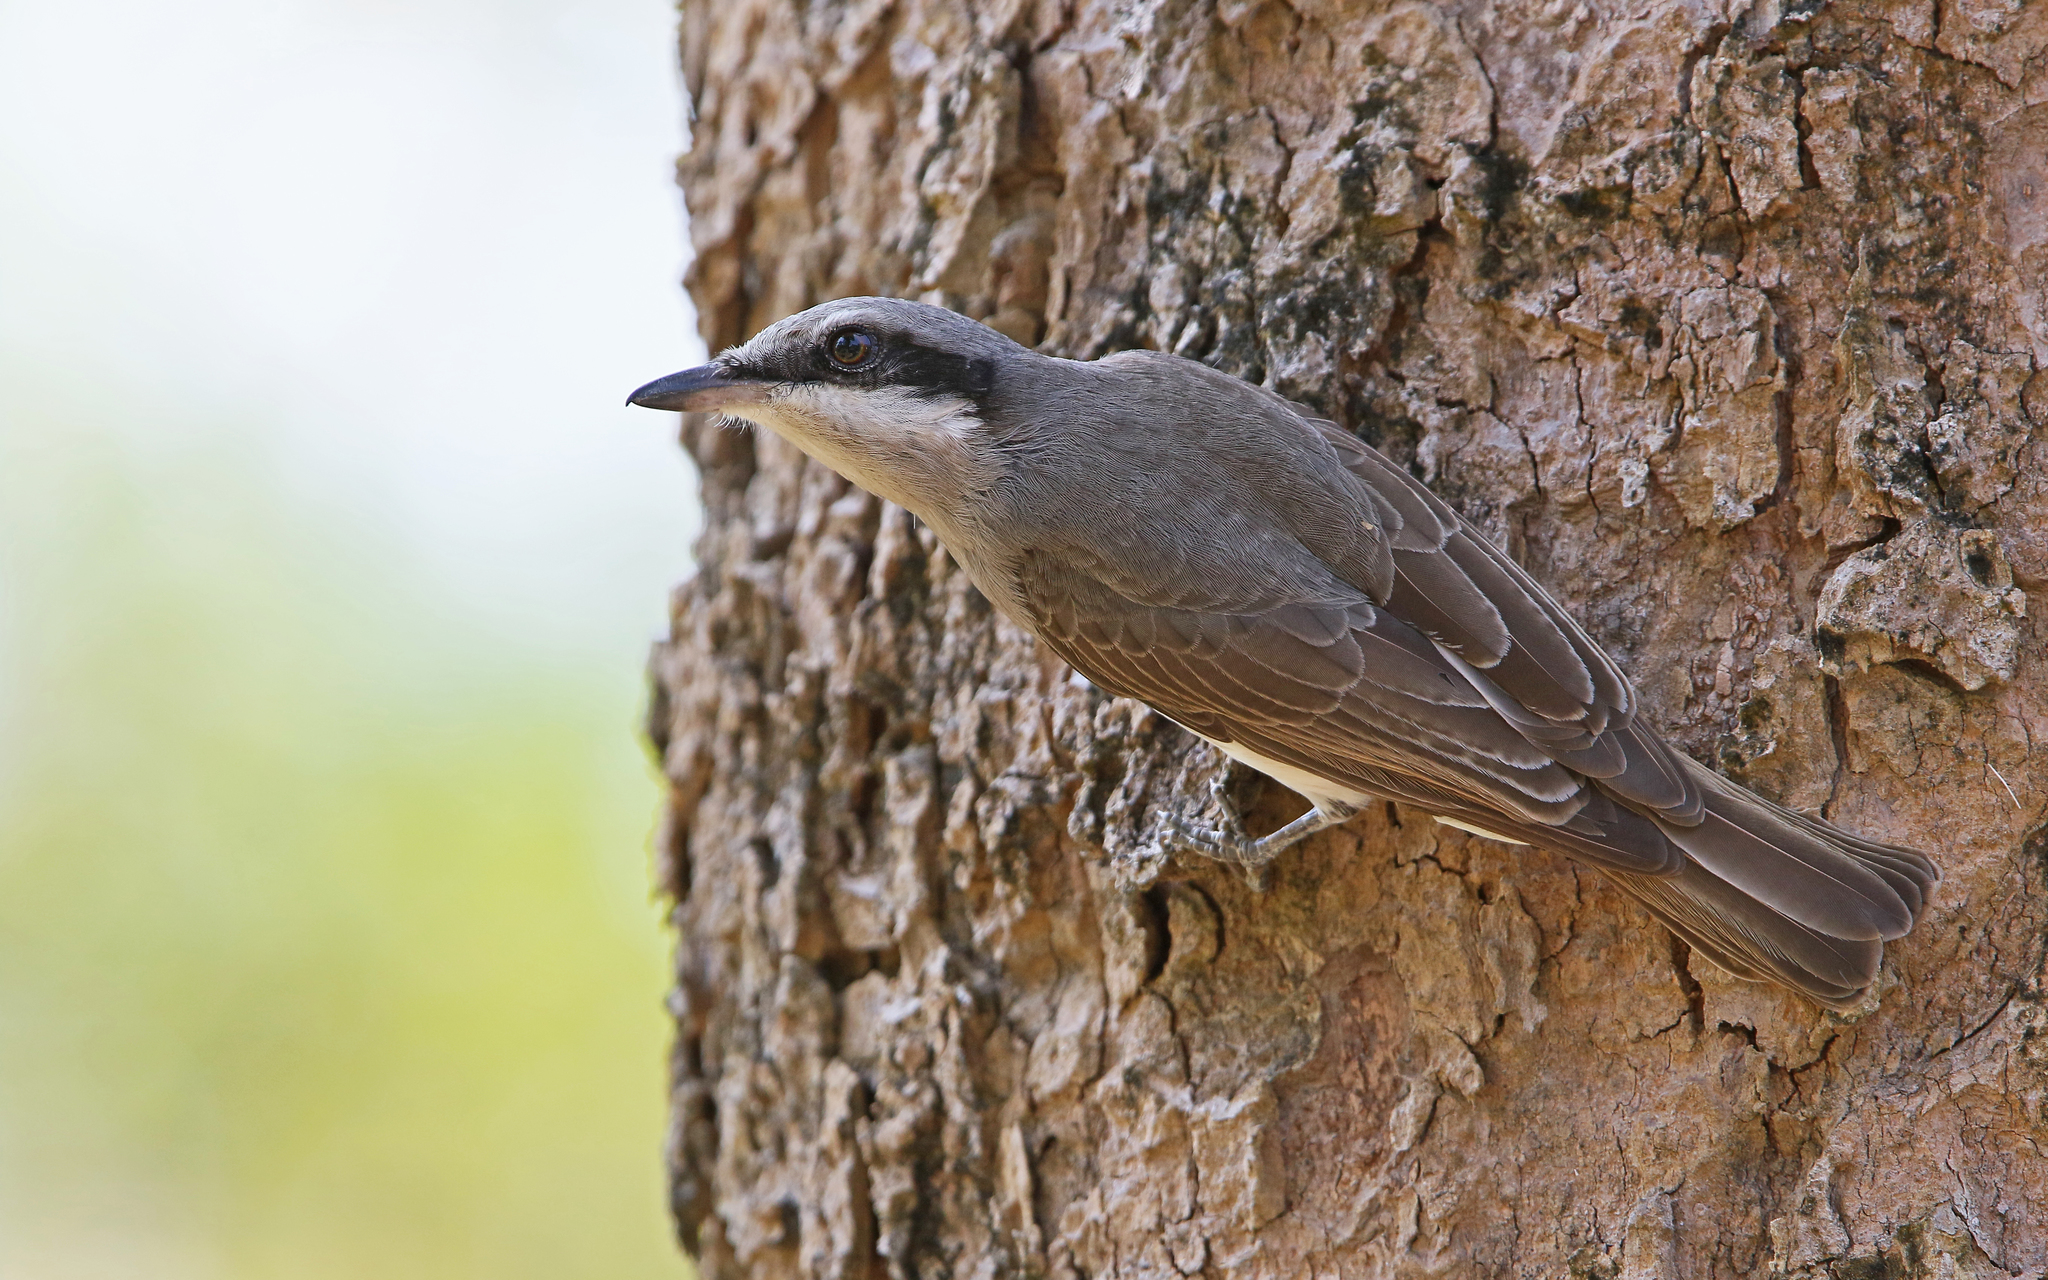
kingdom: Animalia
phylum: Chordata
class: Aves
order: Passeriformes
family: Tephrodornithidae
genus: Tephrodornis
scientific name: Tephrodornis virgatus
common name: Large woodshrike
